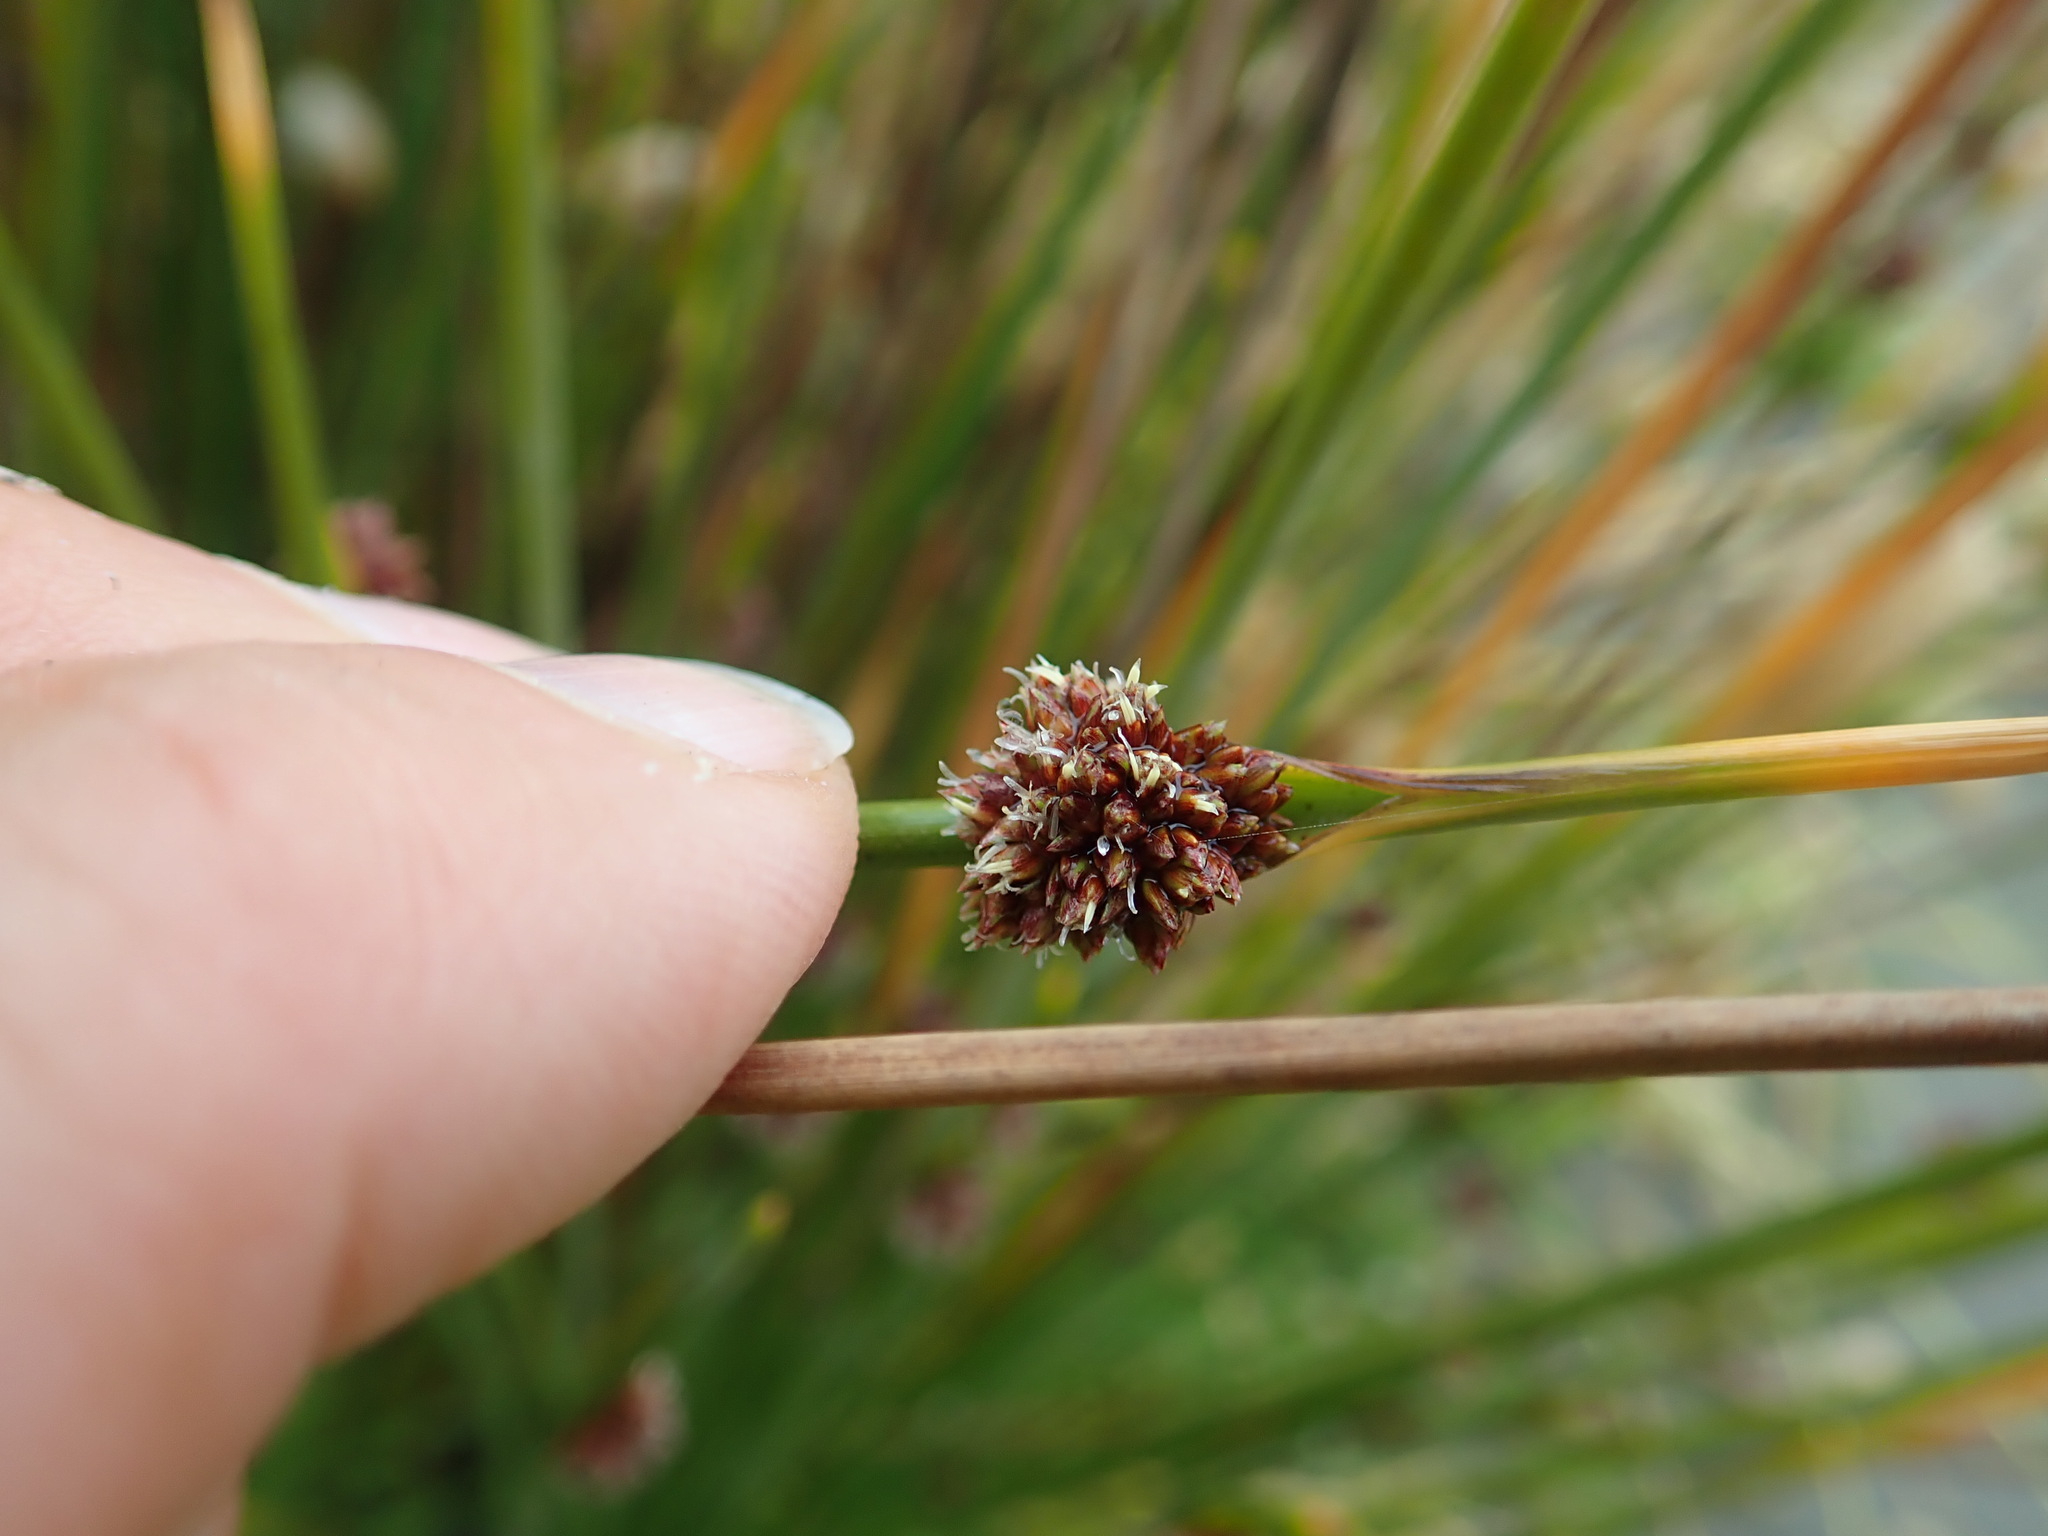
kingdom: Plantae
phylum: Tracheophyta
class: Liliopsida
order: Poales
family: Cyperaceae
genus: Ficinia
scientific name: Ficinia nodosa
